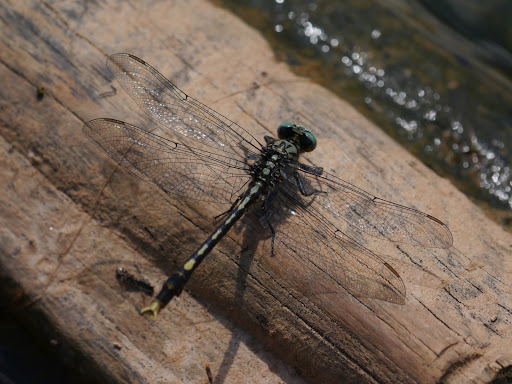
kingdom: Animalia
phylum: Arthropoda
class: Insecta
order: Odonata
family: Gomphidae
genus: Arigomphus
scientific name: Arigomphus villosipes
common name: Unicorn clubtail
